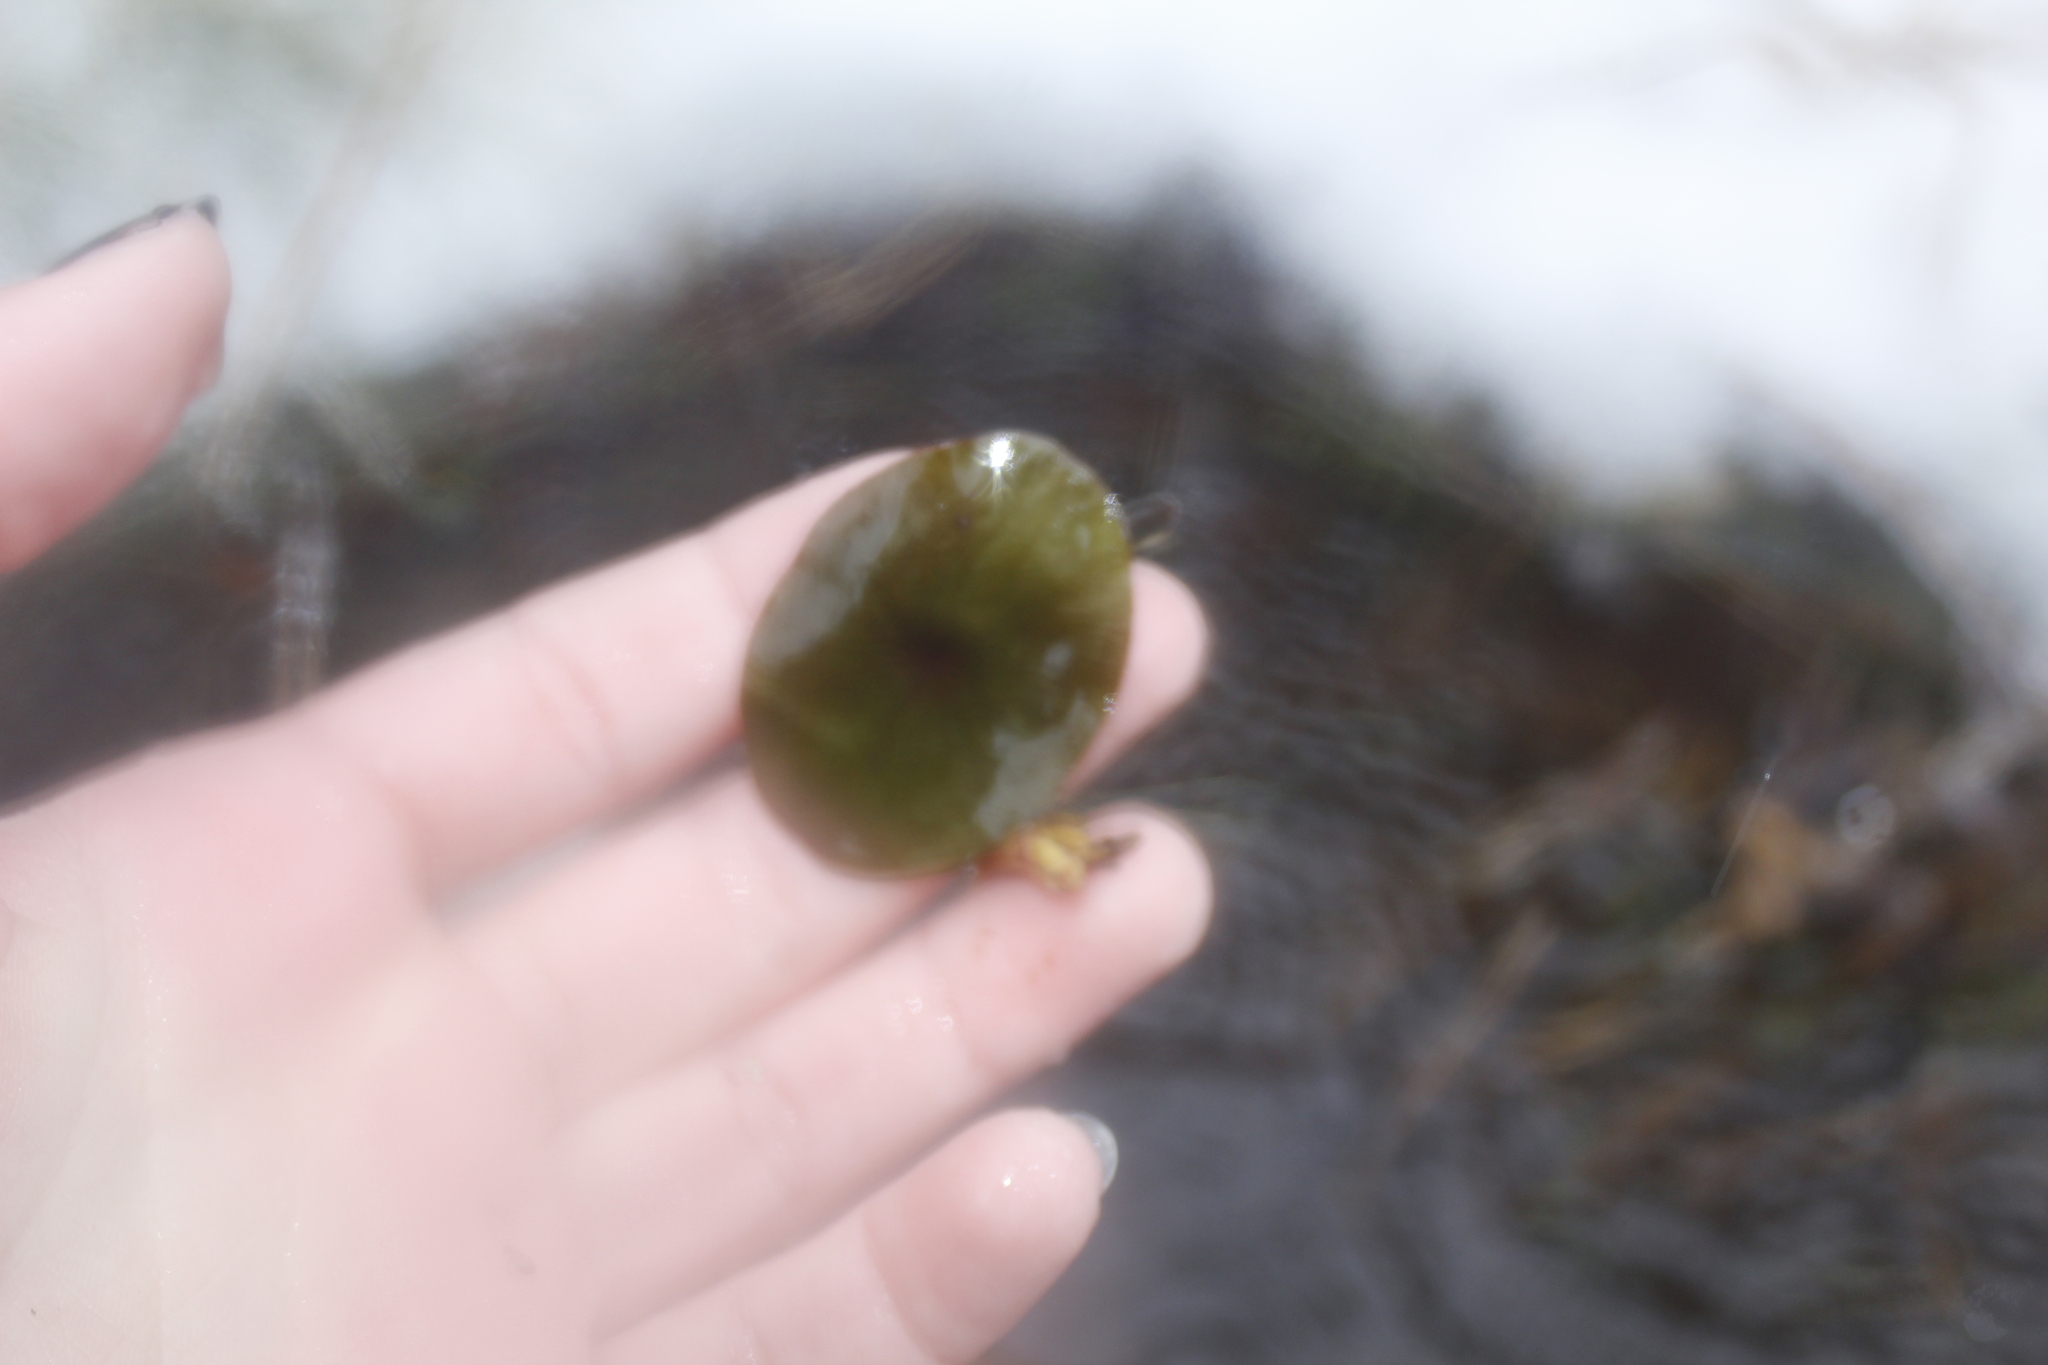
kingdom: Plantae
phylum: Tracheophyta
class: Magnoliopsida
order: Nymphaeales
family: Cabombaceae
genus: Brasenia
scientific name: Brasenia schreberi
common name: Water-shield
